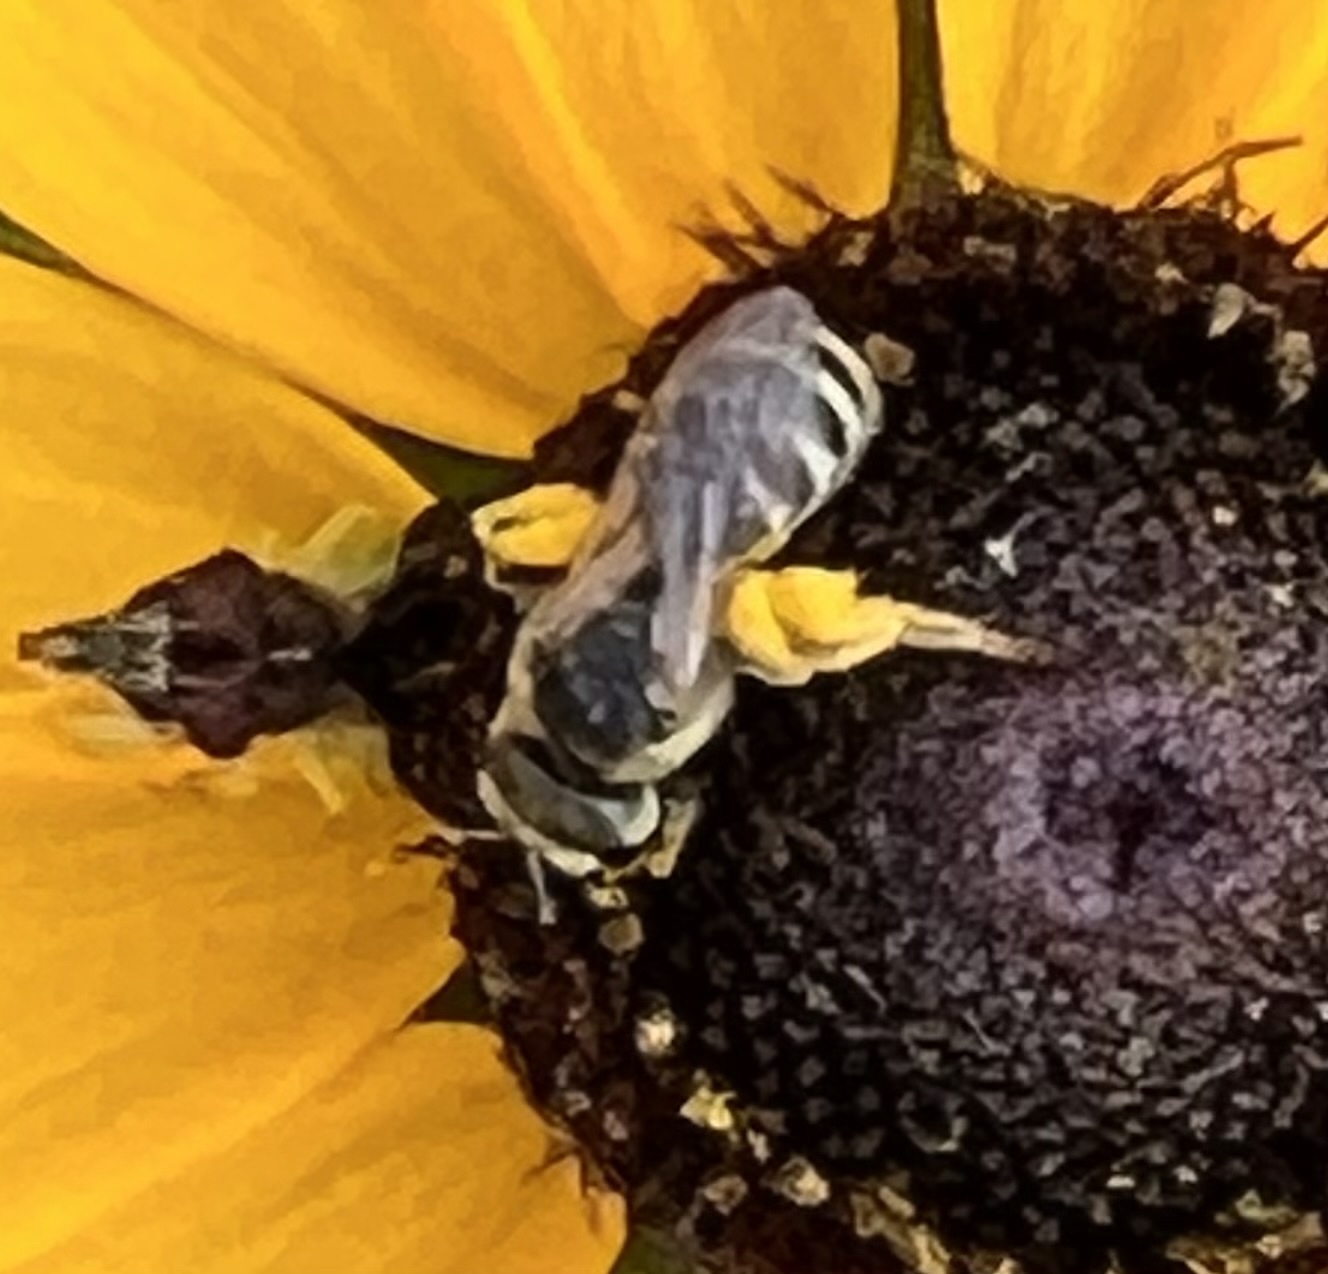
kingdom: Animalia
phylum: Arthropoda
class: Insecta
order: Hymenoptera
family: Halictidae
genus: Halictus
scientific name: Halictus ligatus
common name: Ligated furrow bee
